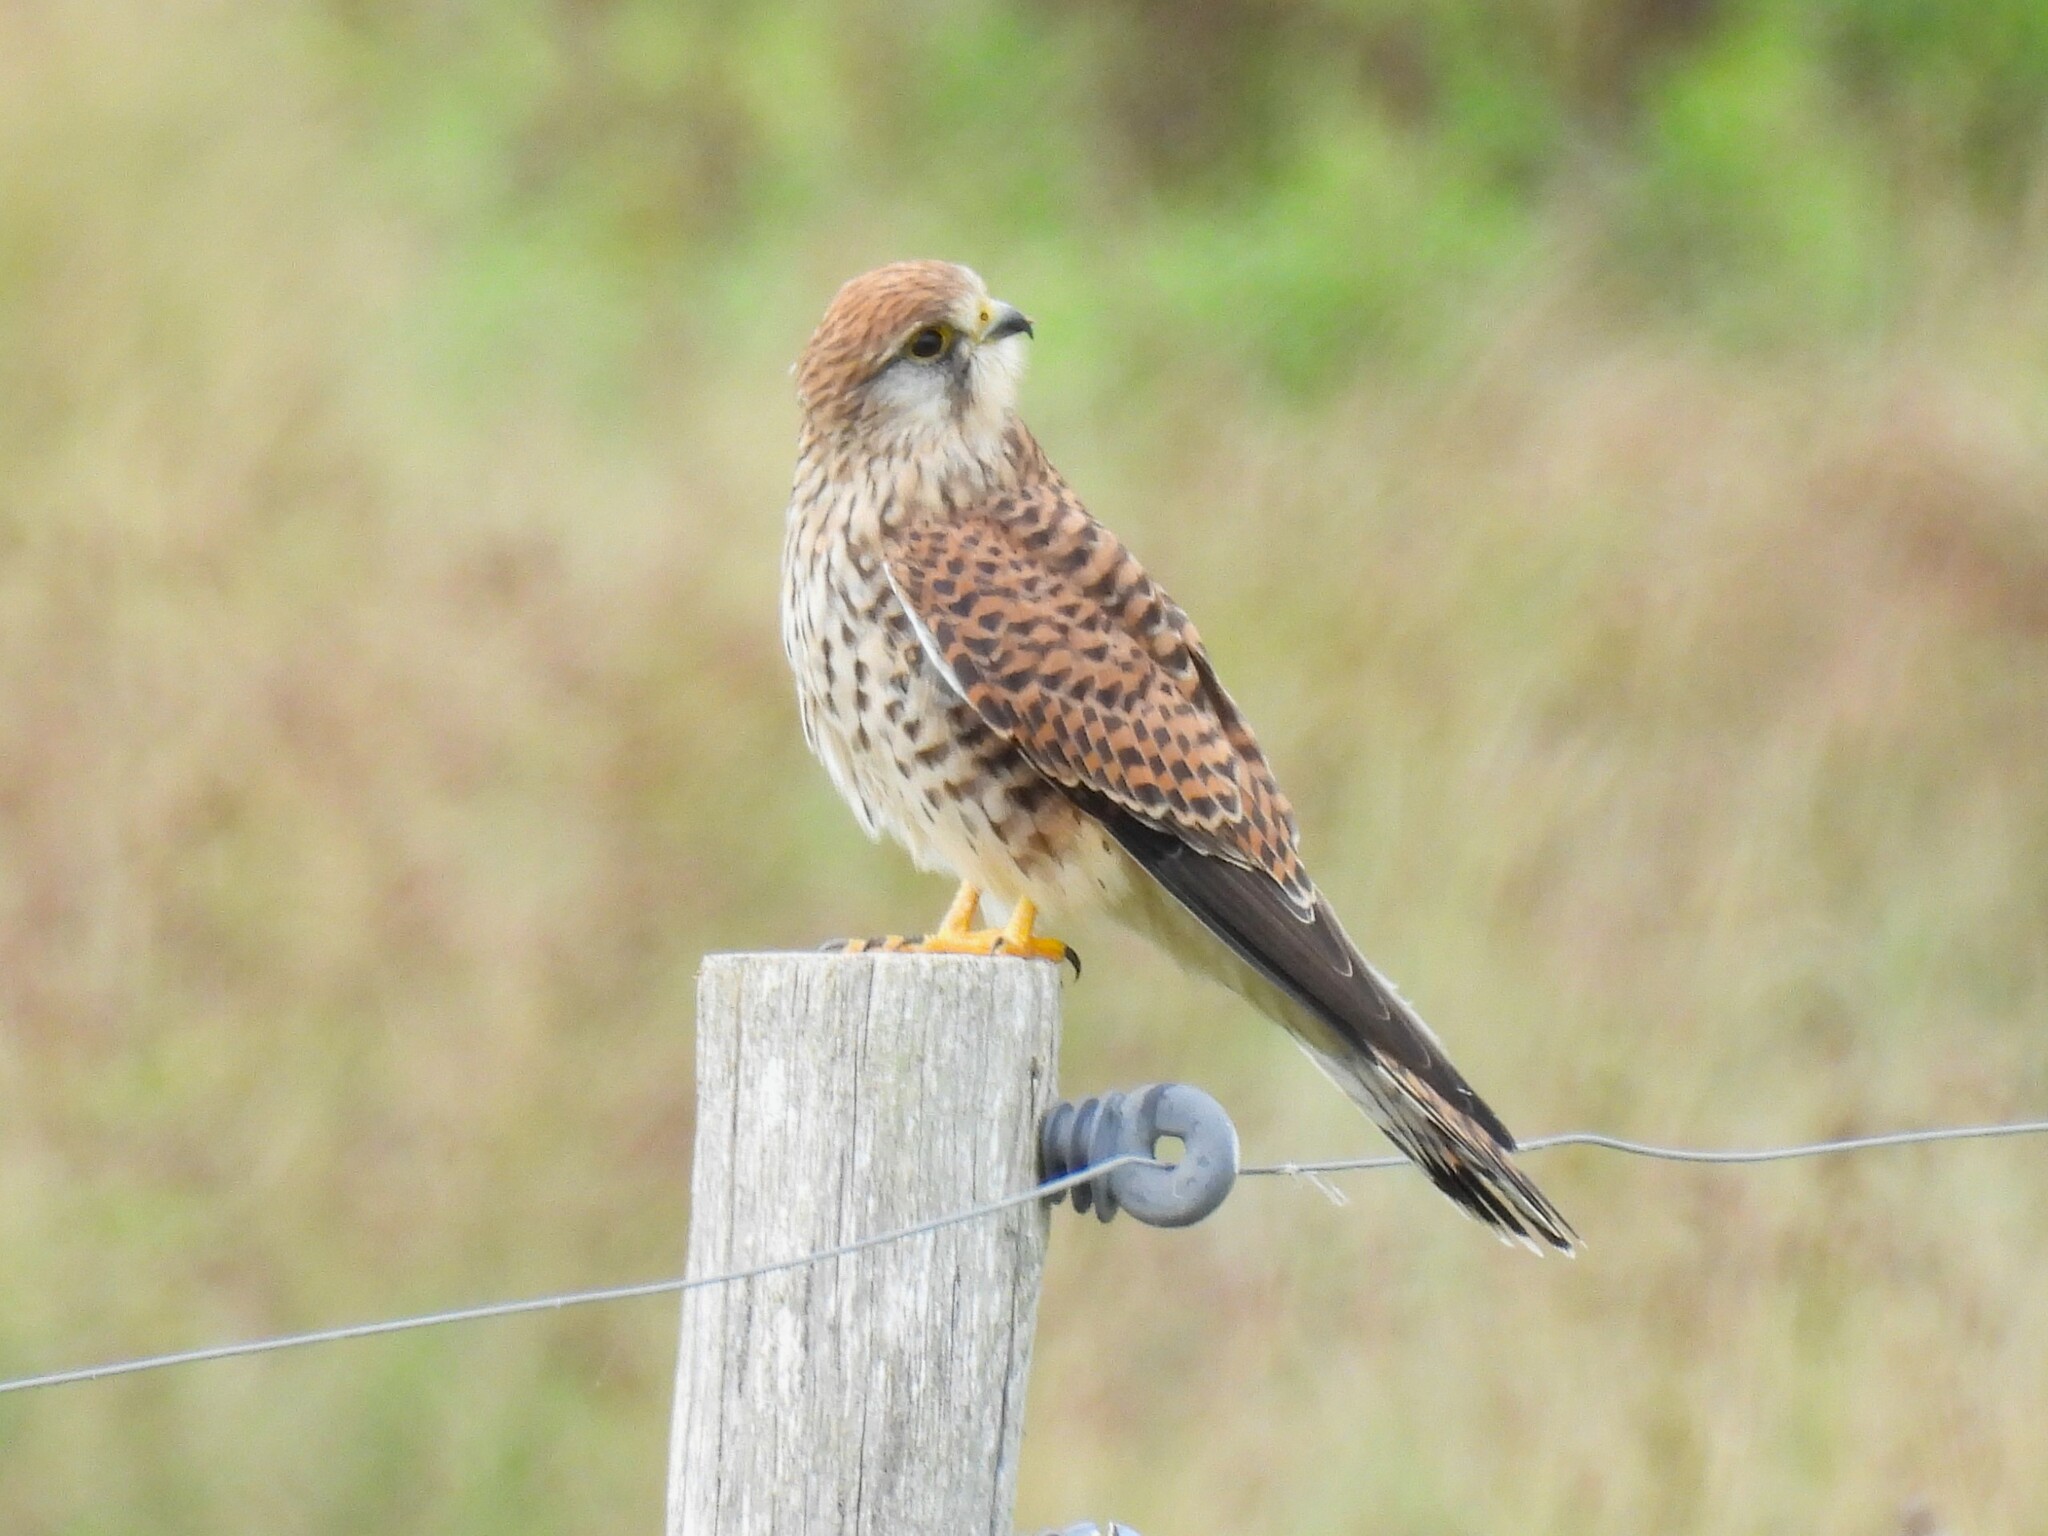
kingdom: Animalia
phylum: Chordata
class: Aves
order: Falconiformes
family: Falconidae
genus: Falco
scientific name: Falco tinnunculus
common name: Common kestrel
